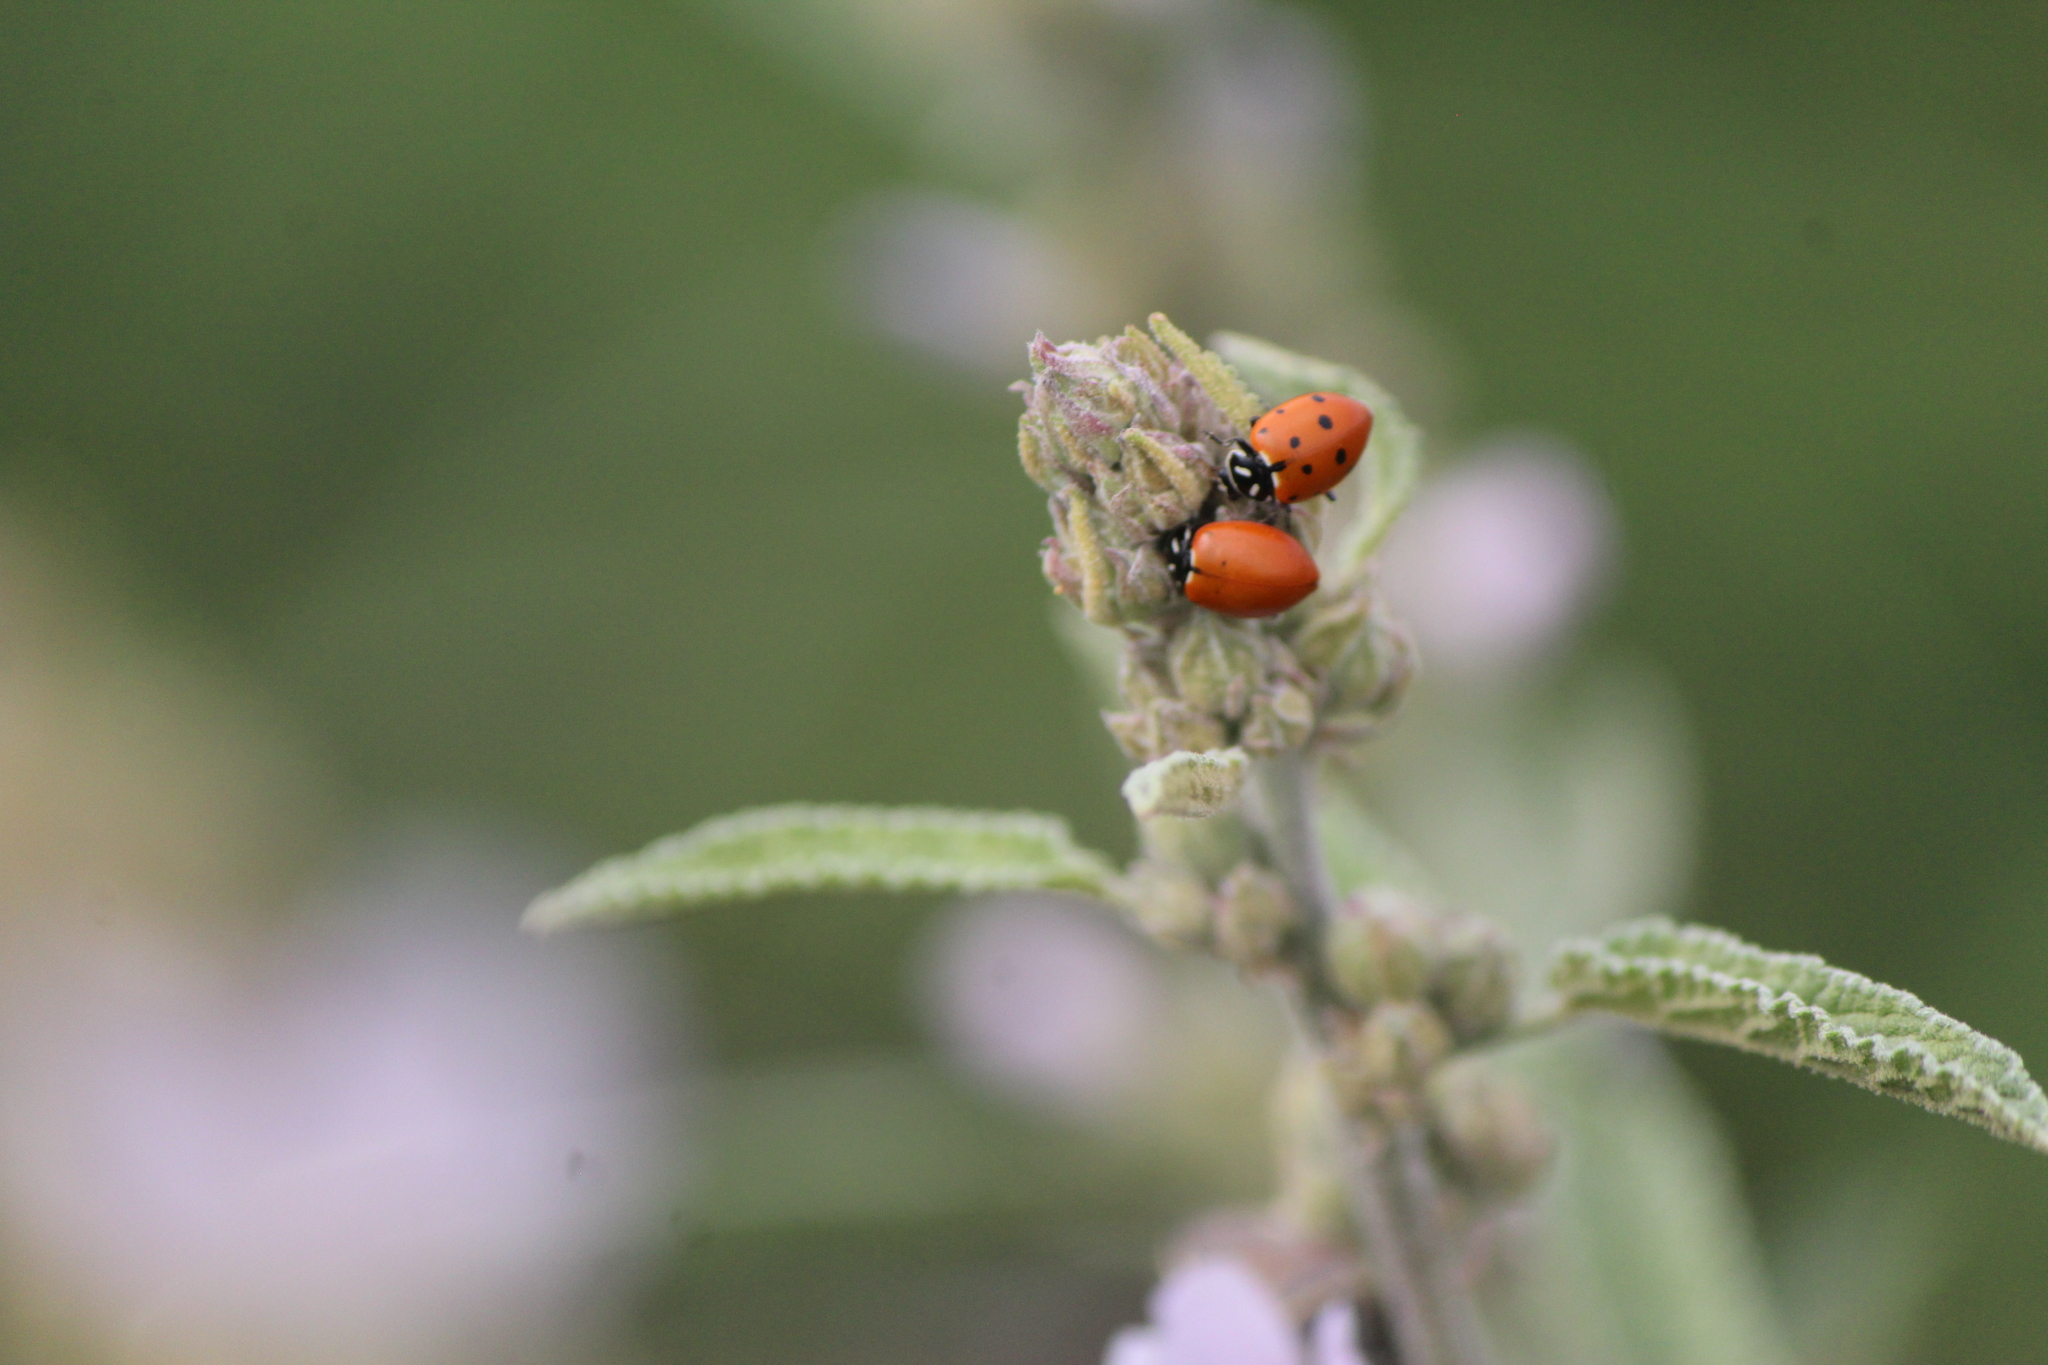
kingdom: Animalia
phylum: Arthropoda
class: Insecta
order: Coleoptera
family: Coccinellidae
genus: Hippodamia
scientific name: Hippodamia convergens
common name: Convergent lady beetle
